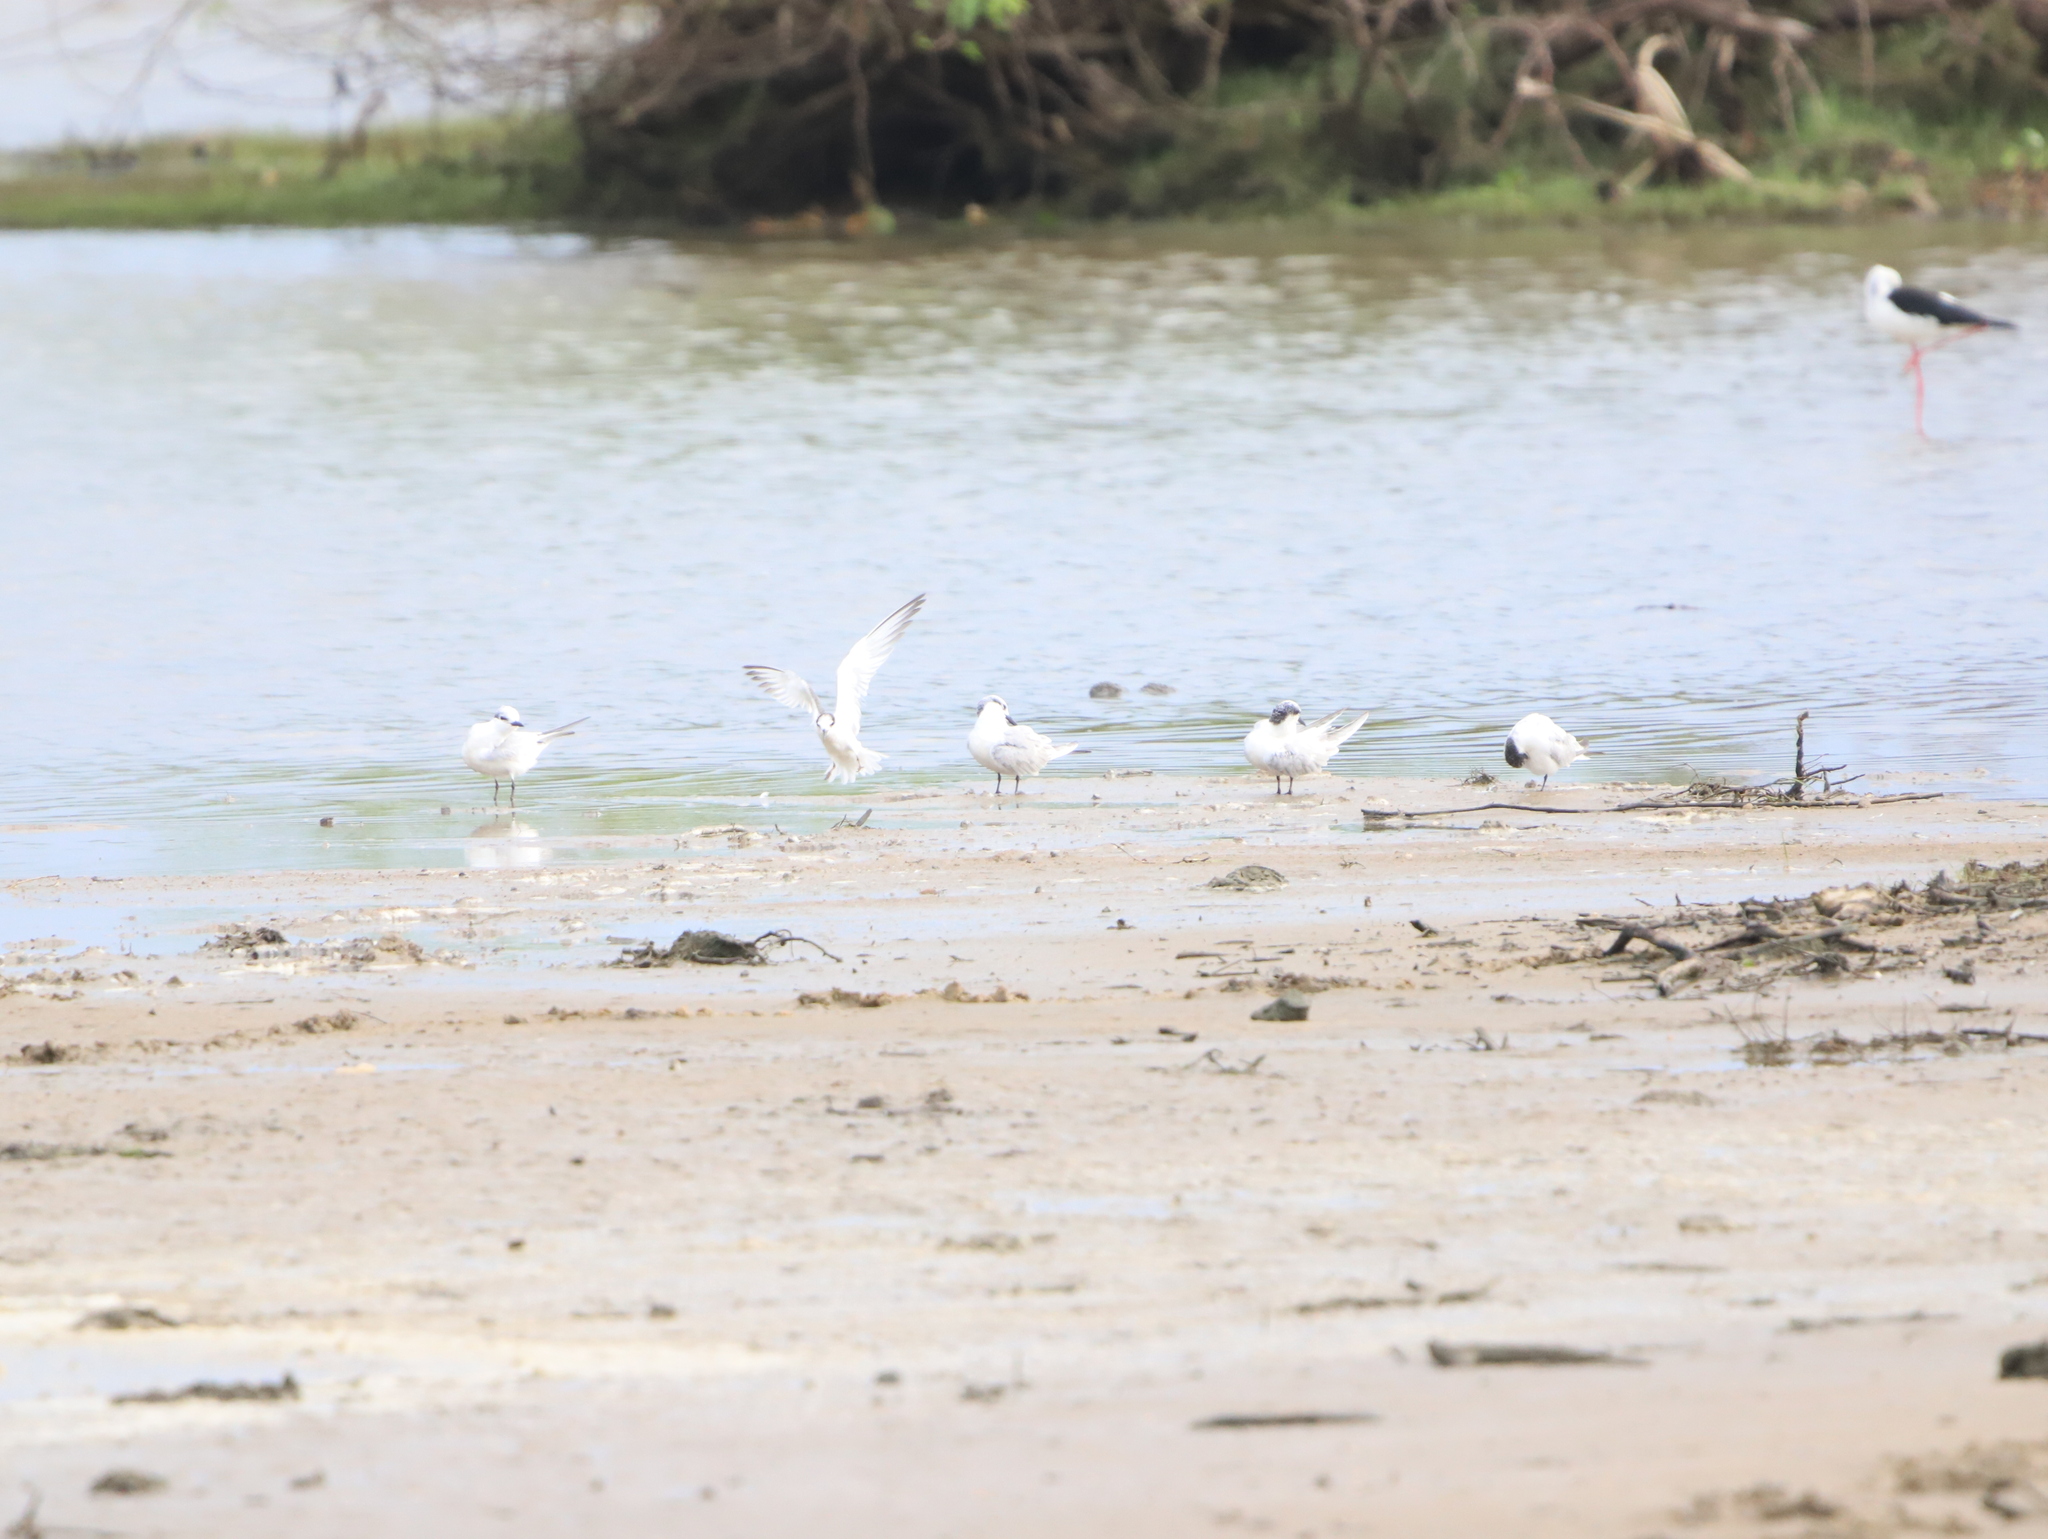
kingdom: Animalia
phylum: Chordata
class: Aves
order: Charadriiformes
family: Laridae
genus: Gelochelidon
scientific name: Gelochelidon nilotica
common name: Gull-billed tern
